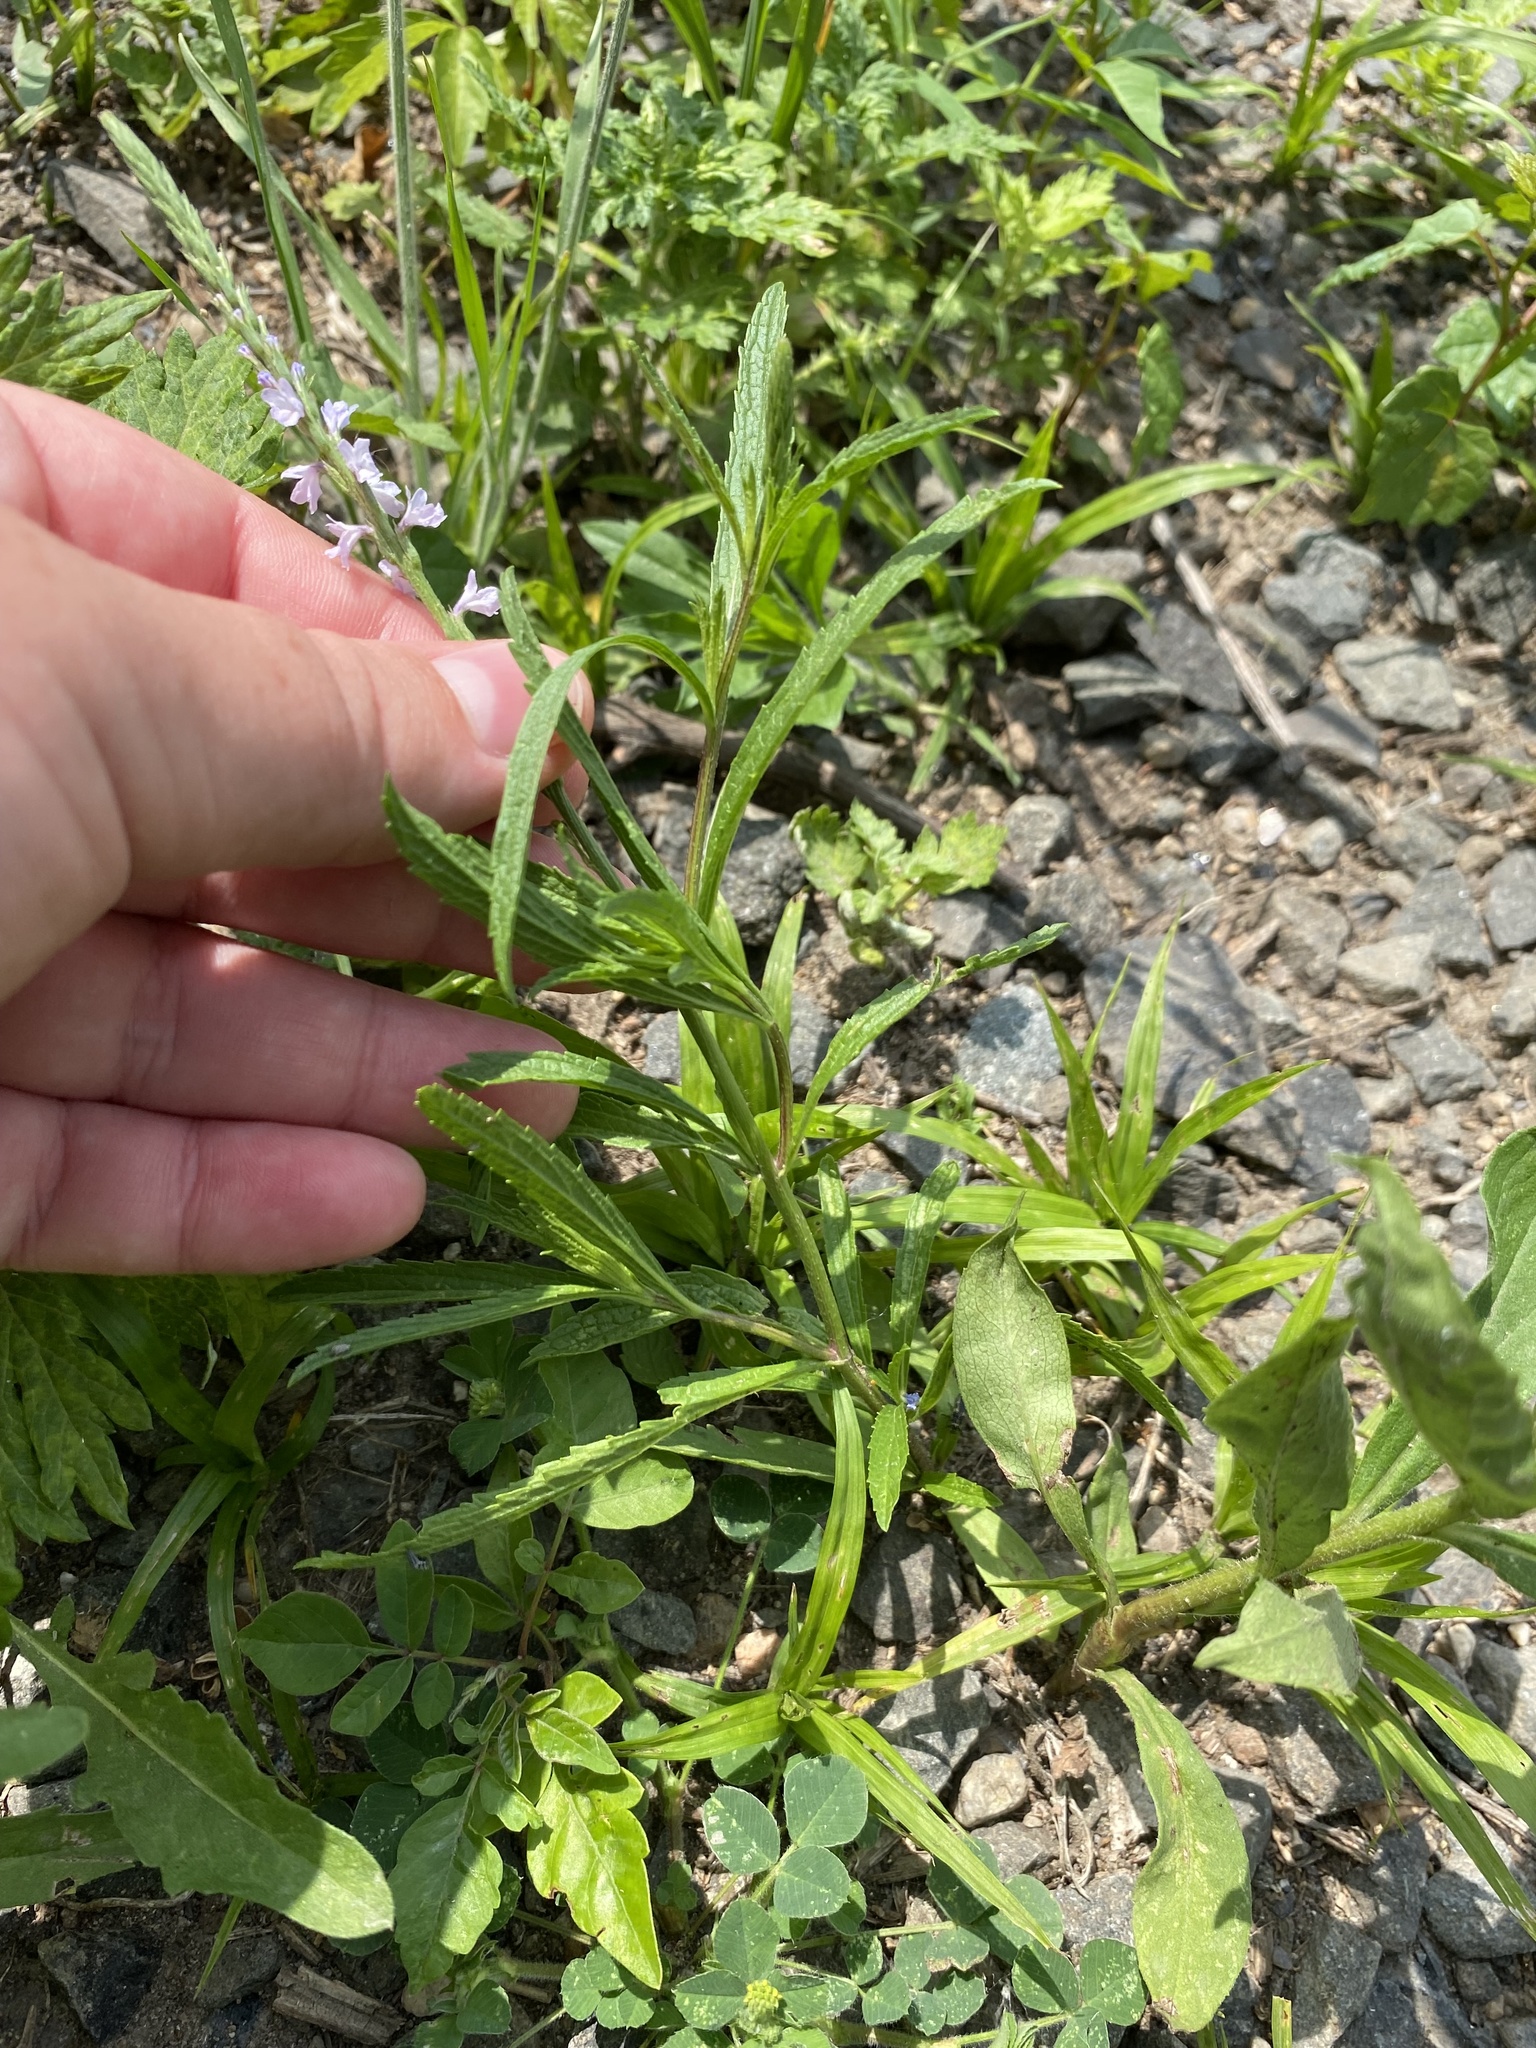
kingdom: Plantae
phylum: Tracheophyta
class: Magnoliopsida
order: Lamiales
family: Verbenaceae
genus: Verbena
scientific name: Verbena simplex
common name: Narrow-leaf vervain
